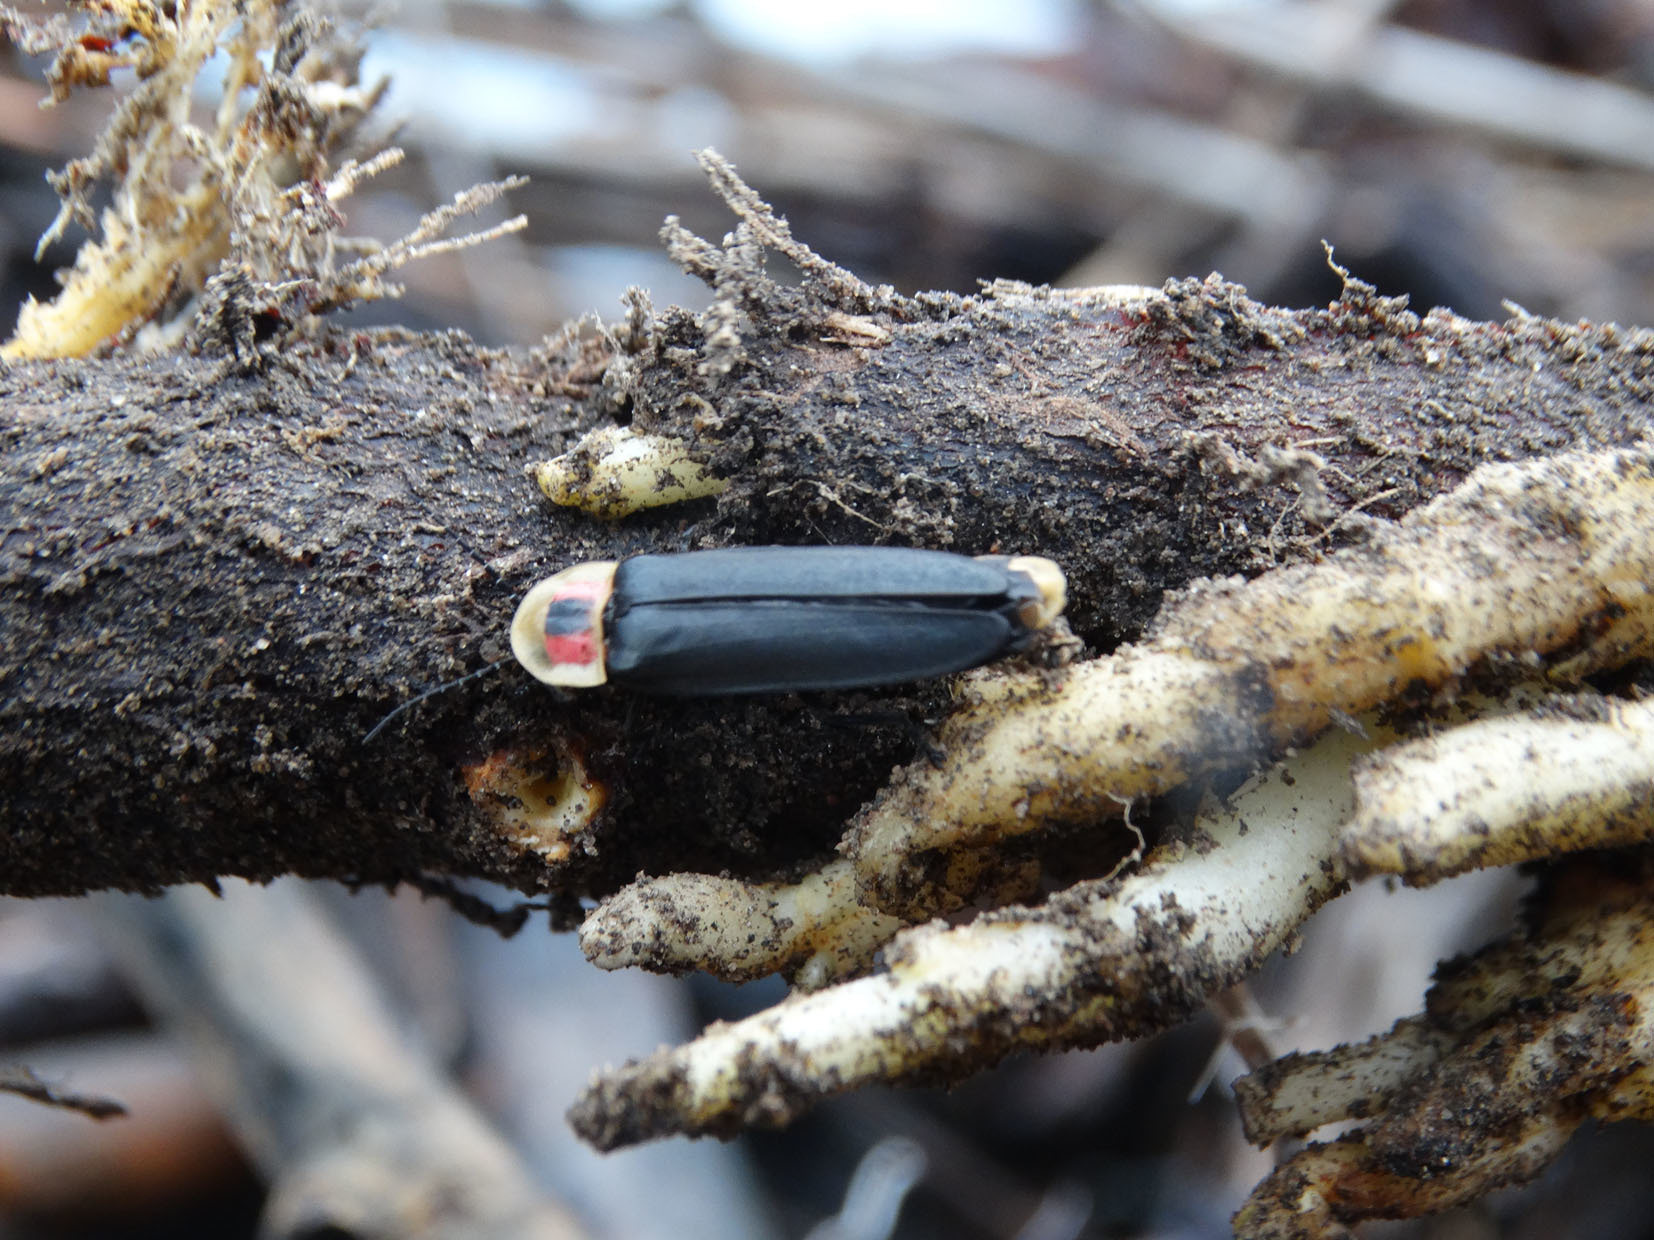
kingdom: Animalia
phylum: Arthropoda
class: Insecta
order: Coleoptera
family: Lampyridae
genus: Photinus
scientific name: Photinus extensus
